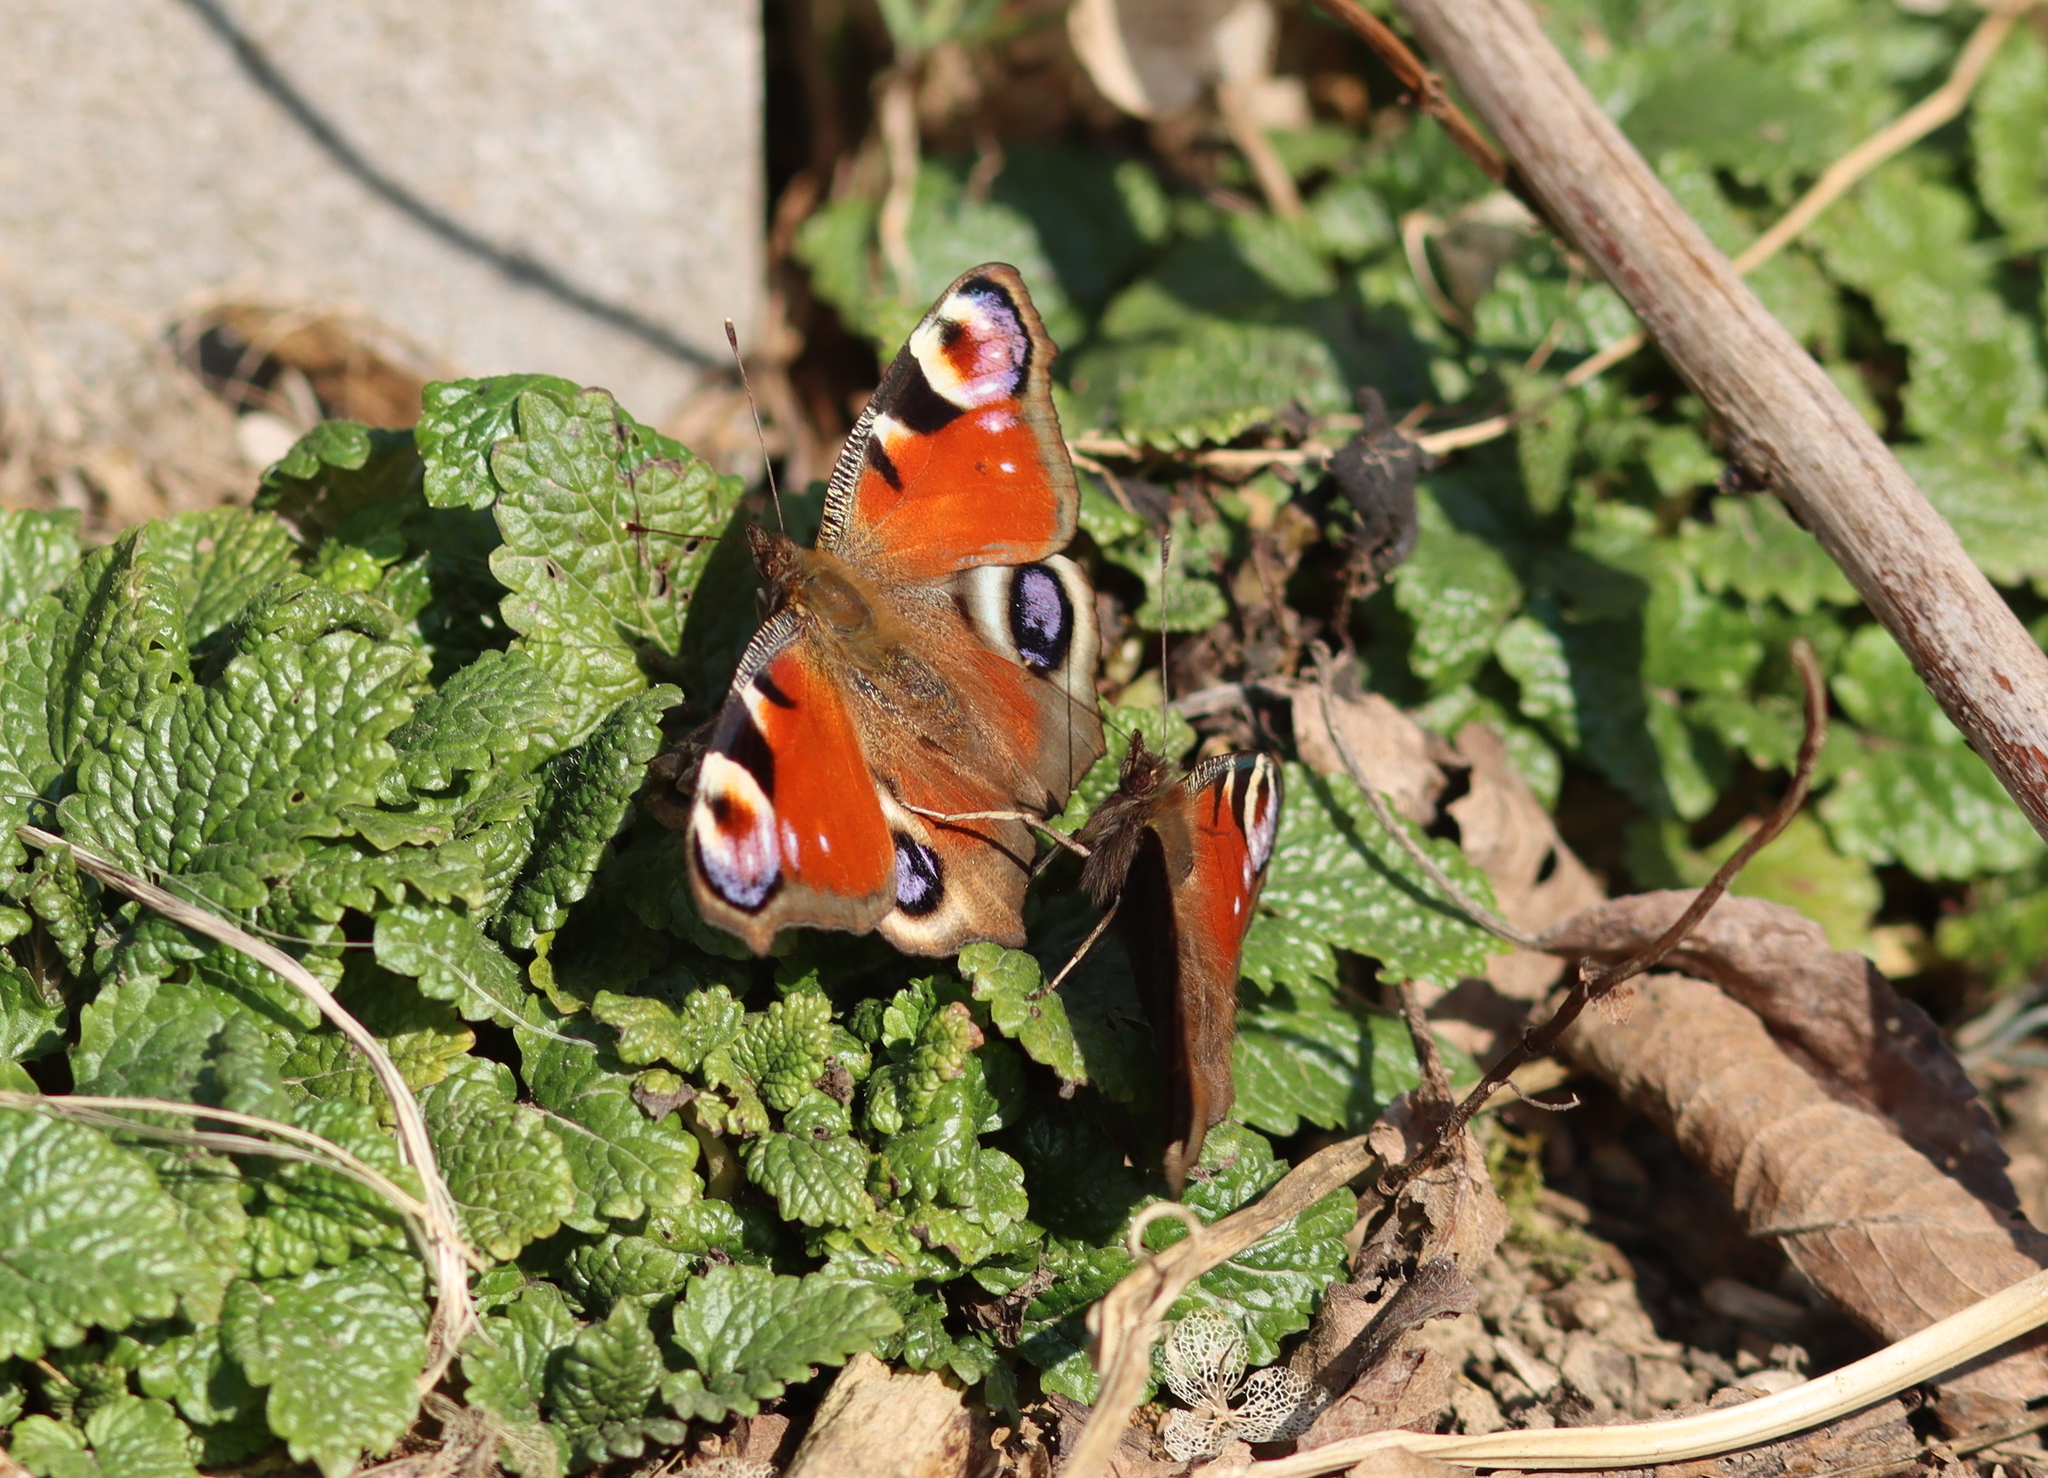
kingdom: Animalia
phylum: Arthropoda
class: Insecta
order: Lepidoptera
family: Nymphalidae
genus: Aglais
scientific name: Aglais io
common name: Peacock
